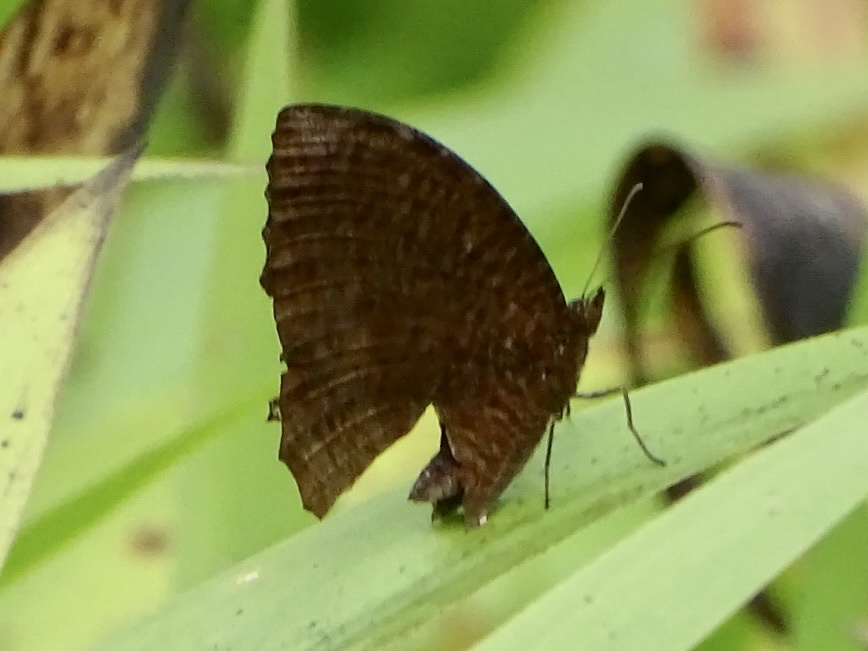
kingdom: Animalia
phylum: Arthropoda
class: Insecta
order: Lepidoptera
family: Nymphalidae
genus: Elymnias
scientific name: Elymnias hypermnestra
